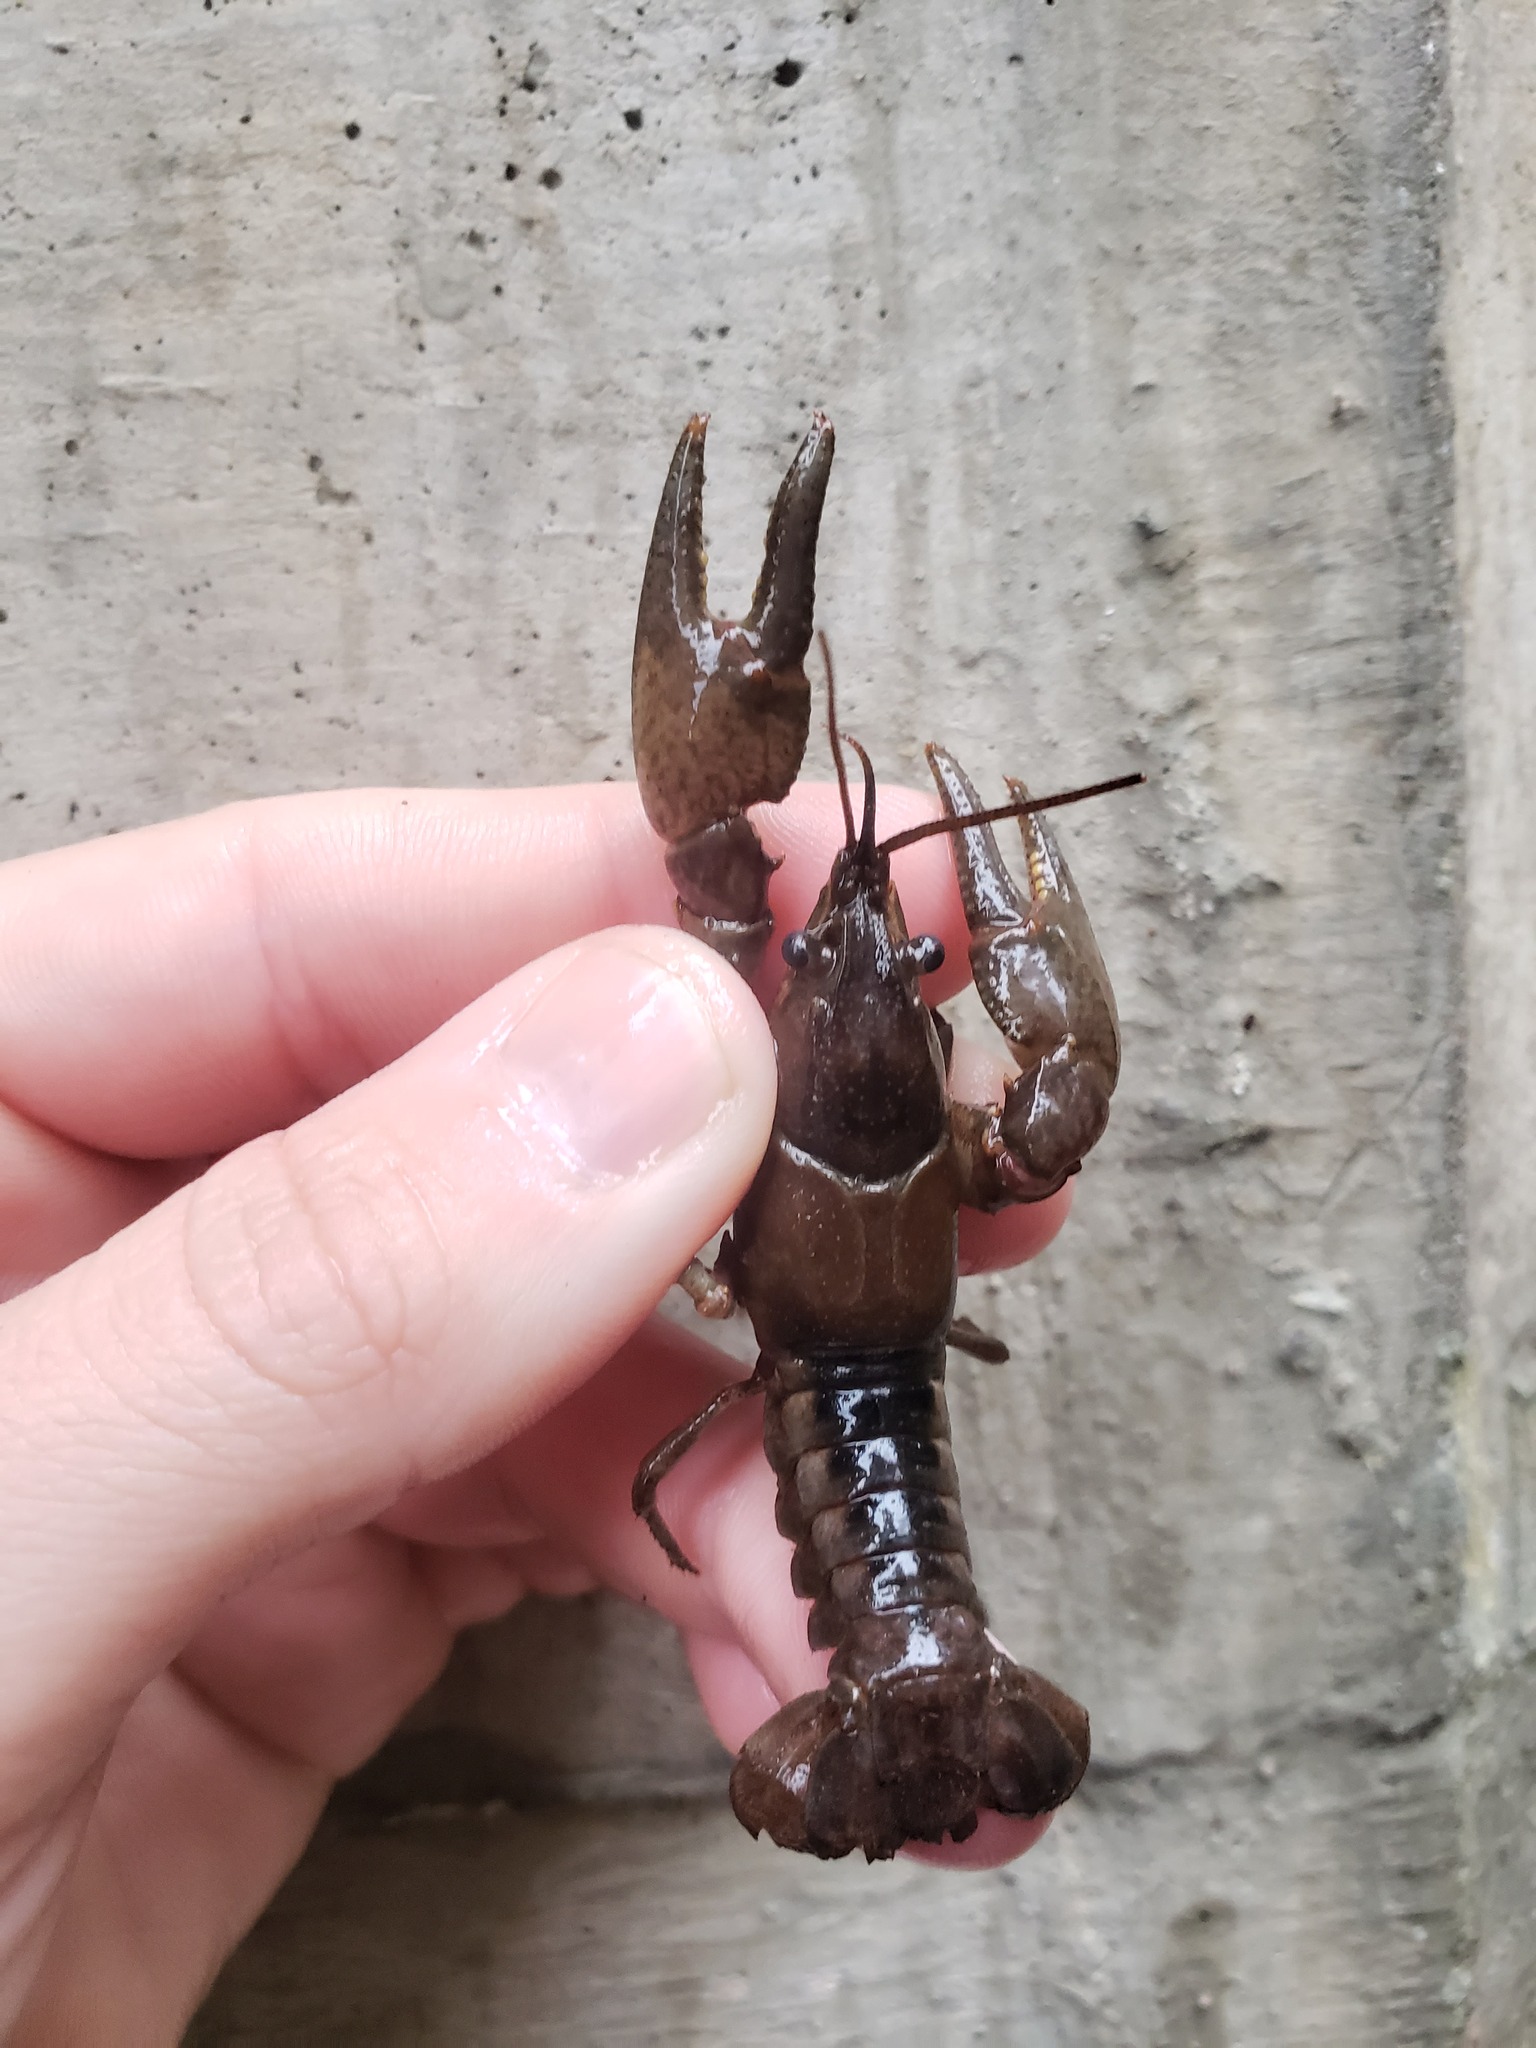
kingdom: Animalia
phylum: Arthropoda
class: Malacostraca
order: Decapoda
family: Cambaridae
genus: Faxonius
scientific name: Faxonius propinquus
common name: Northern clearwater crayfish
